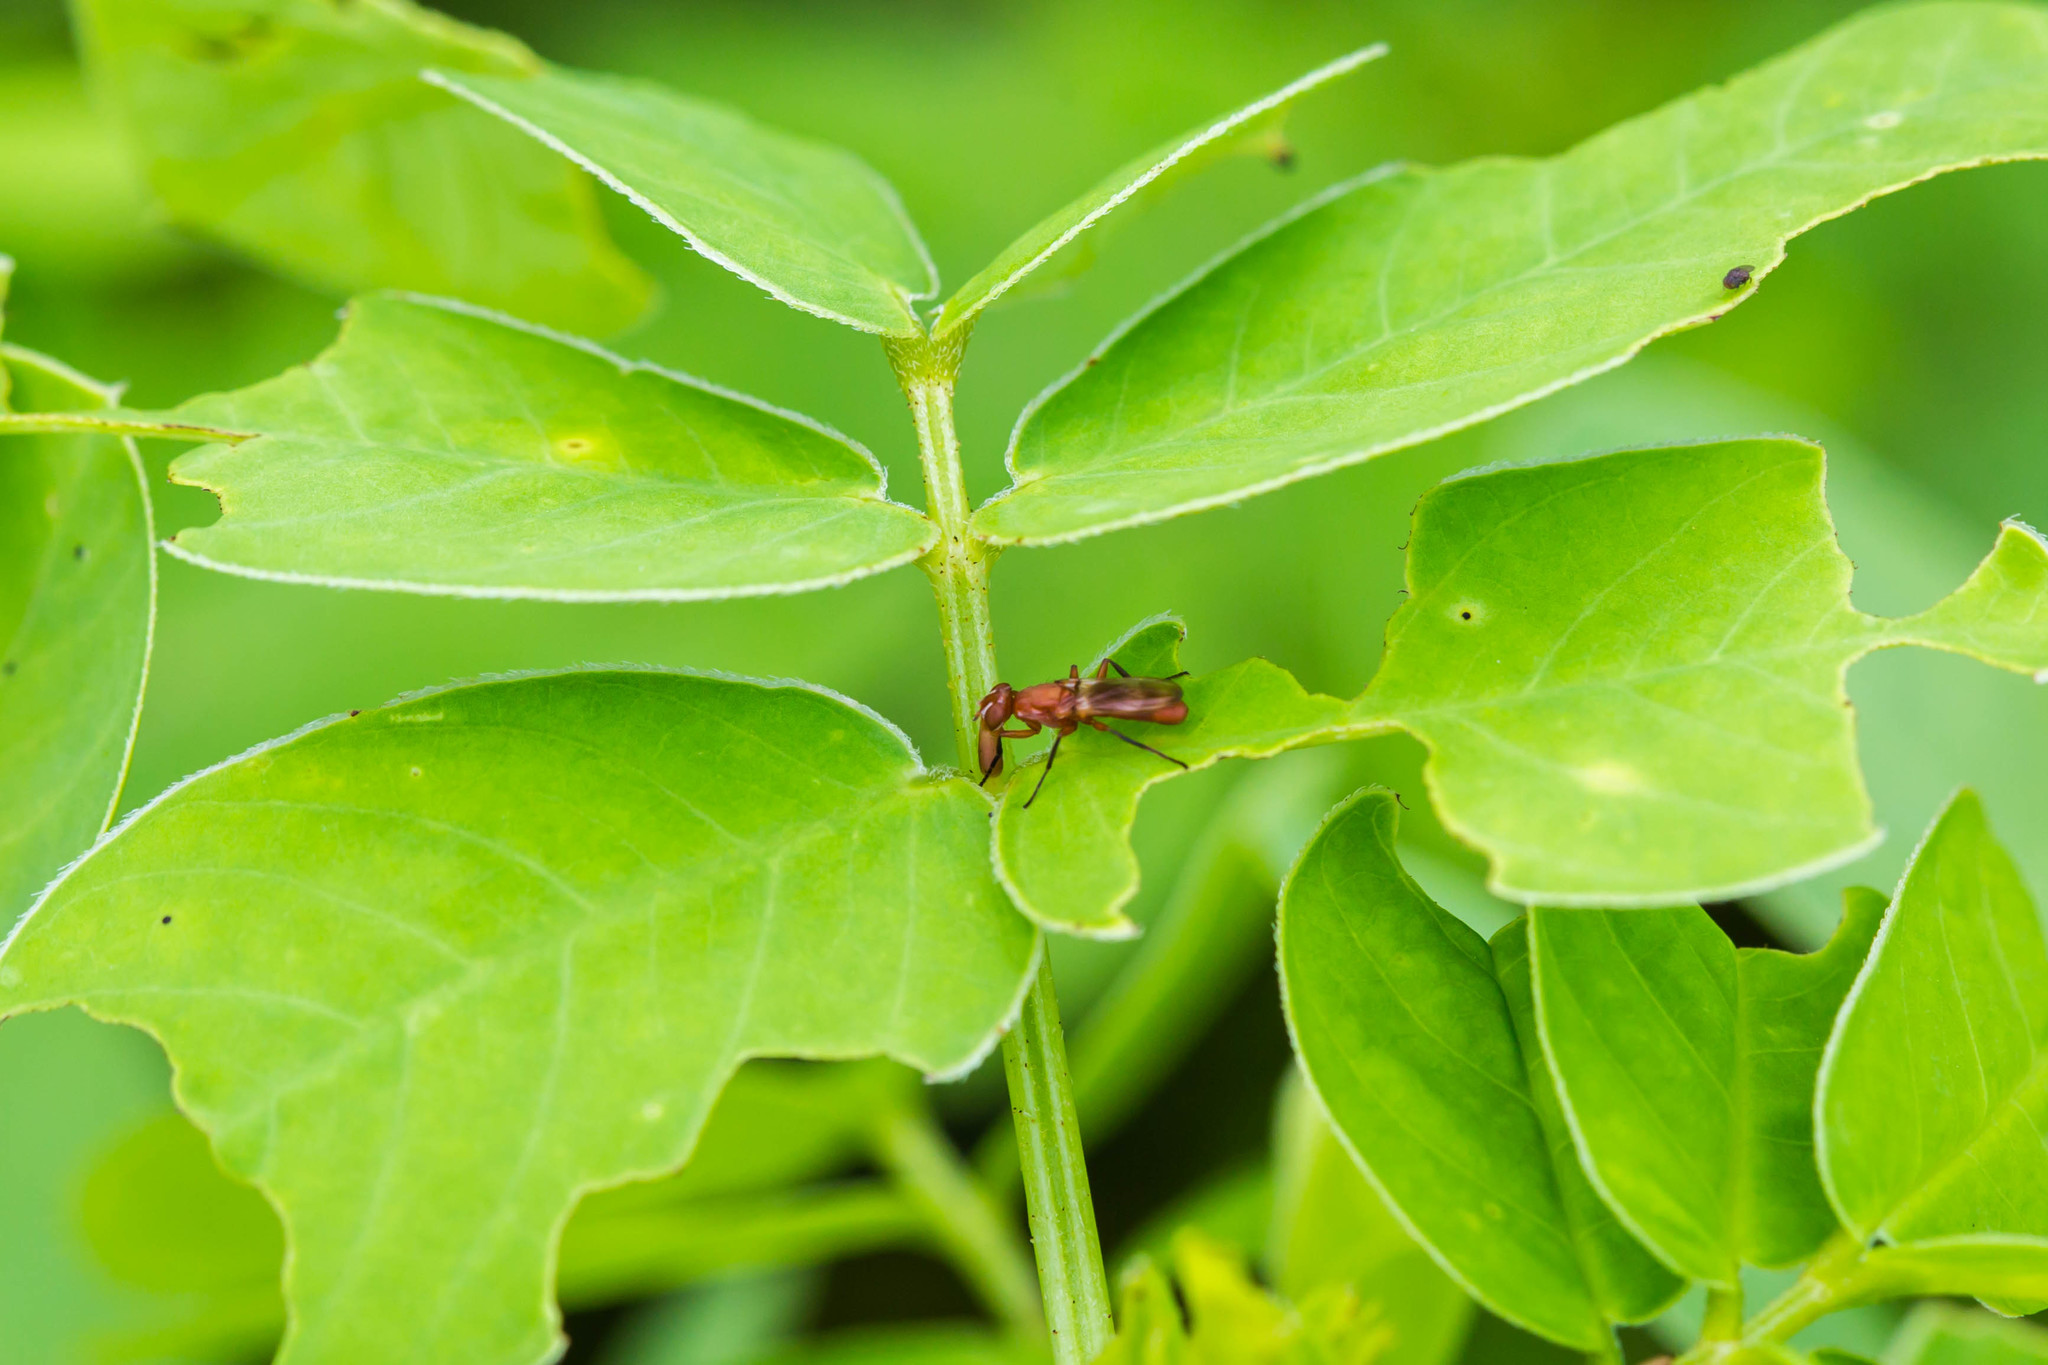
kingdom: Animalia
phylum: Arthropoda
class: Insecta
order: Diptera
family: Ulidiidae
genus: Zacompsia
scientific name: Zacompsia fulva
